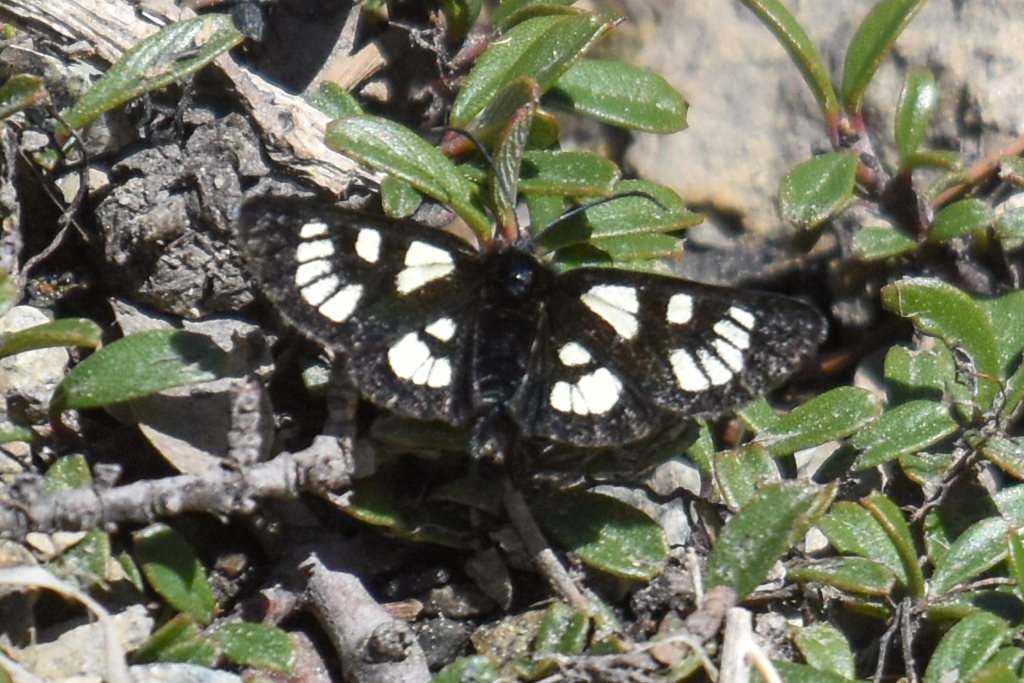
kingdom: Animalia
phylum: Arthropoda
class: Insecta
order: Lepidoptera
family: Noctuidae
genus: Alypia
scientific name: Alypia ridingsii
